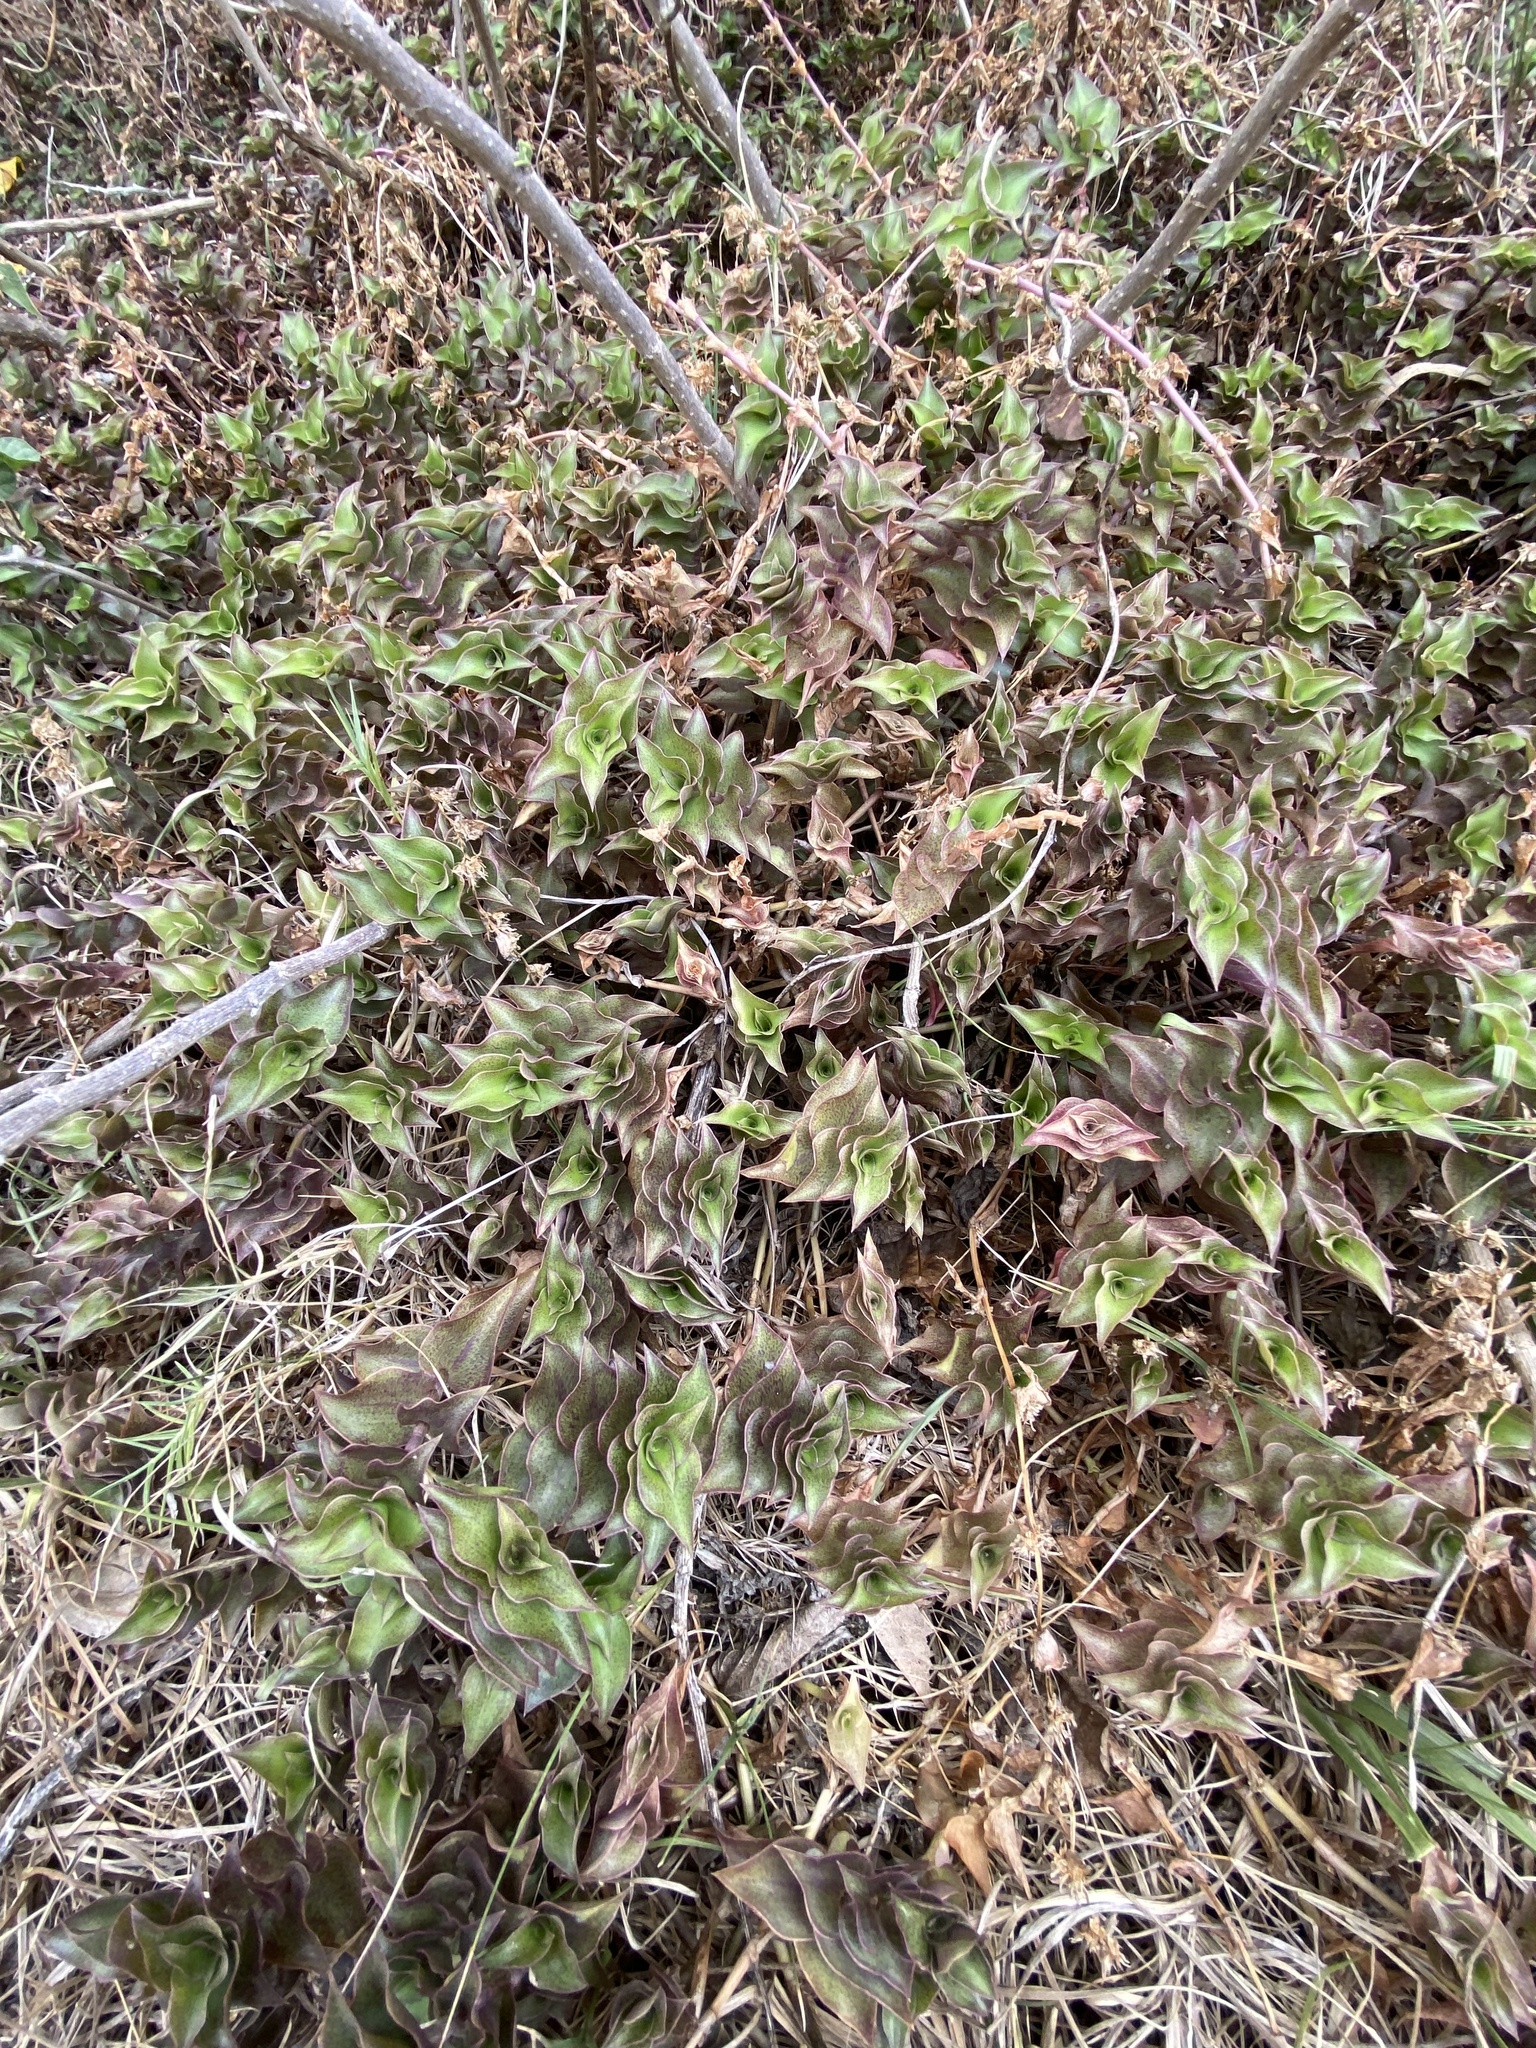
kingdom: Plantae
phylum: Tracheophyta
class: Liliopsida
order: Commelinales
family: Commelinaceae
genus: Callisia
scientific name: Callisia repens
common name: Creeping inchplant
